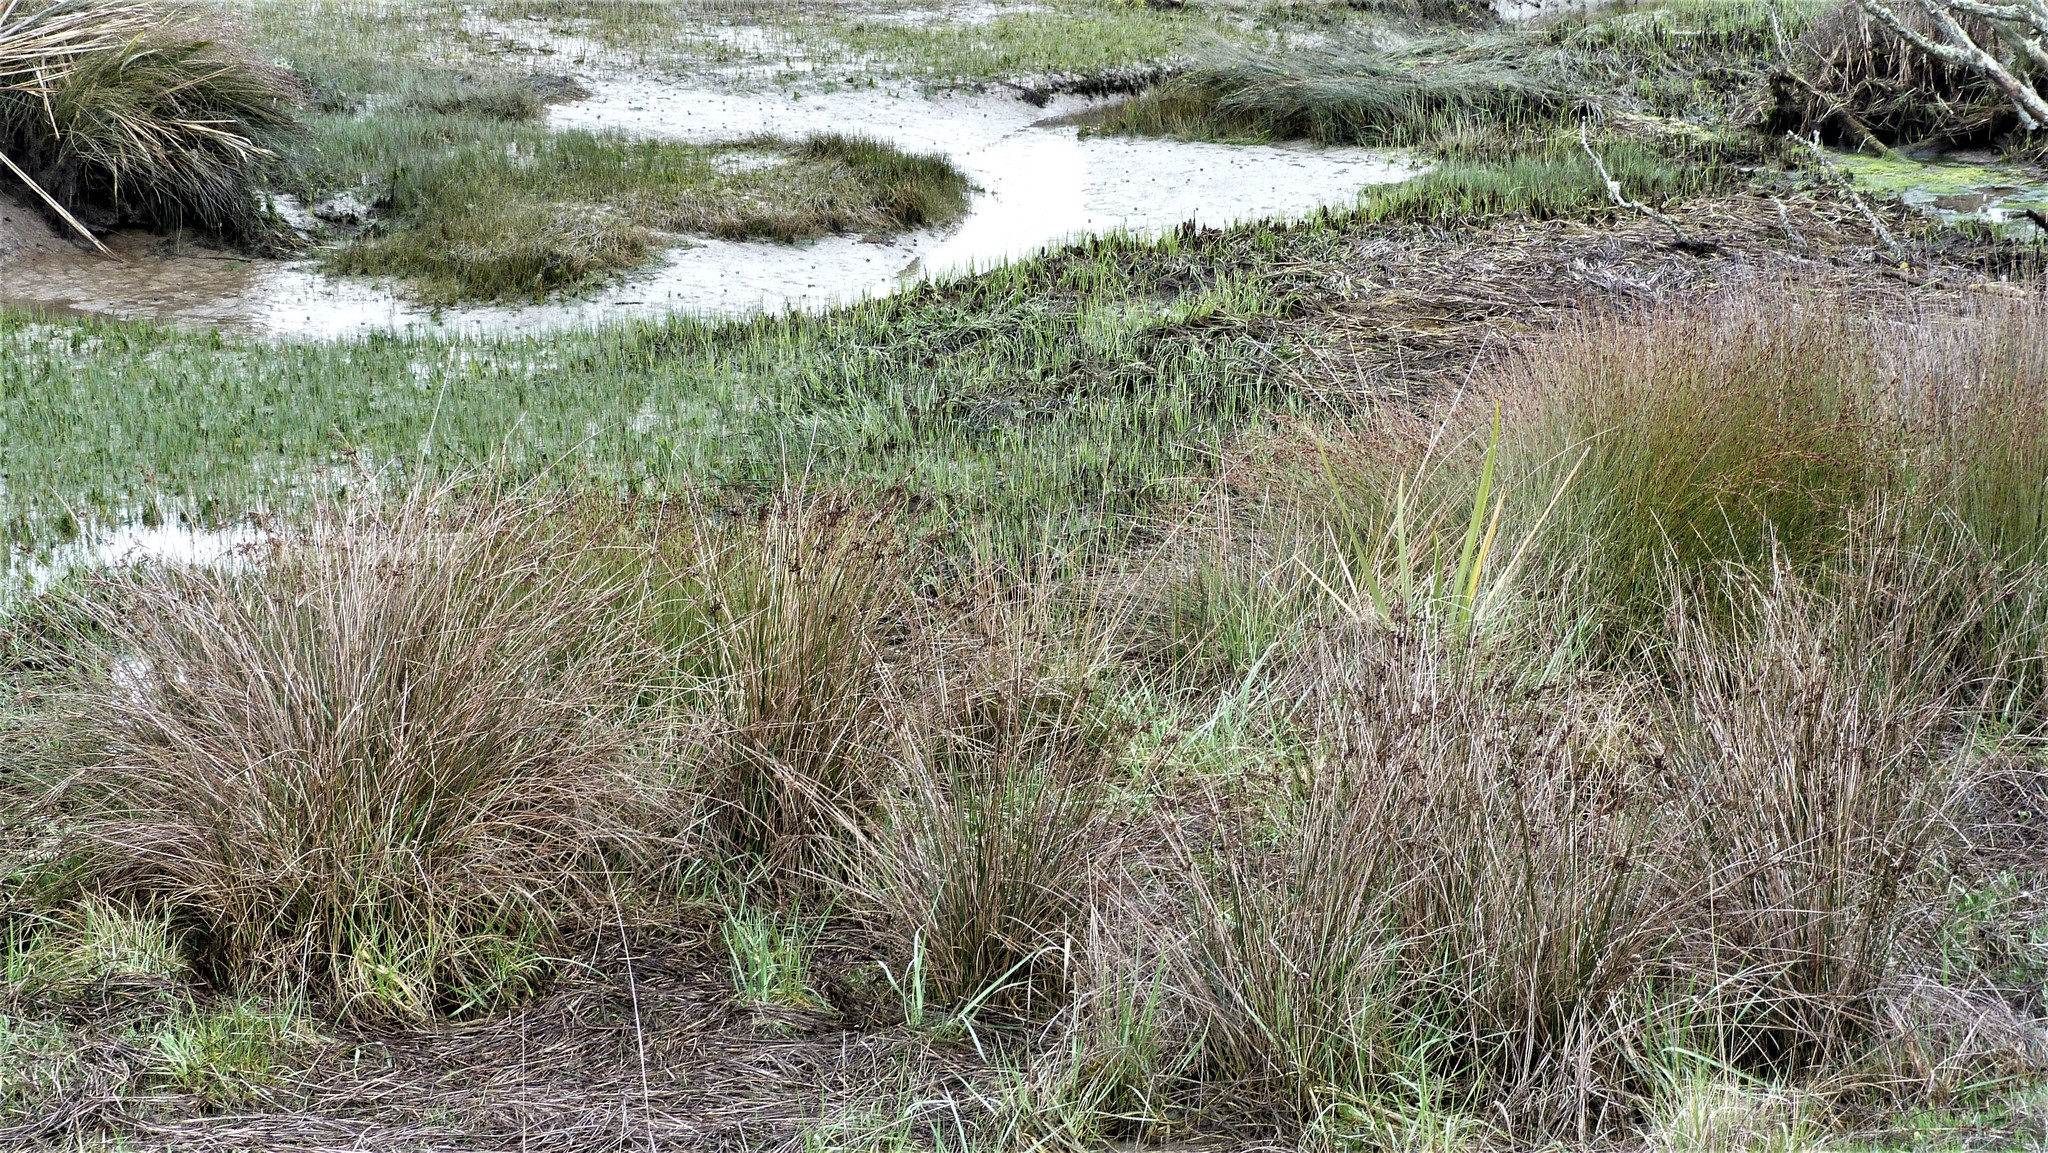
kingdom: Plantae
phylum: Tracheophyta
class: Liliopsida
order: Poales
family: Juncaceae
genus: Juncus
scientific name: Juncus kraussii
